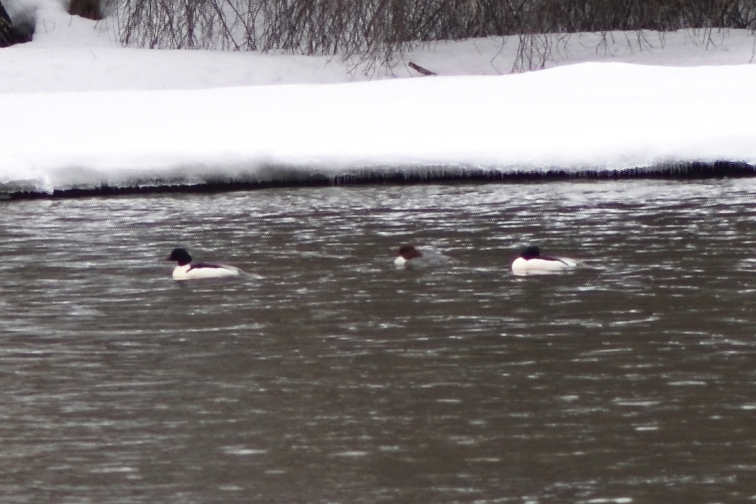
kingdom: Animalia
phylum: Chordata
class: Aves
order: Anseriformes
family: Anatidae
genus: Mergus
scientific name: Mergus merganser
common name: Common merganser
